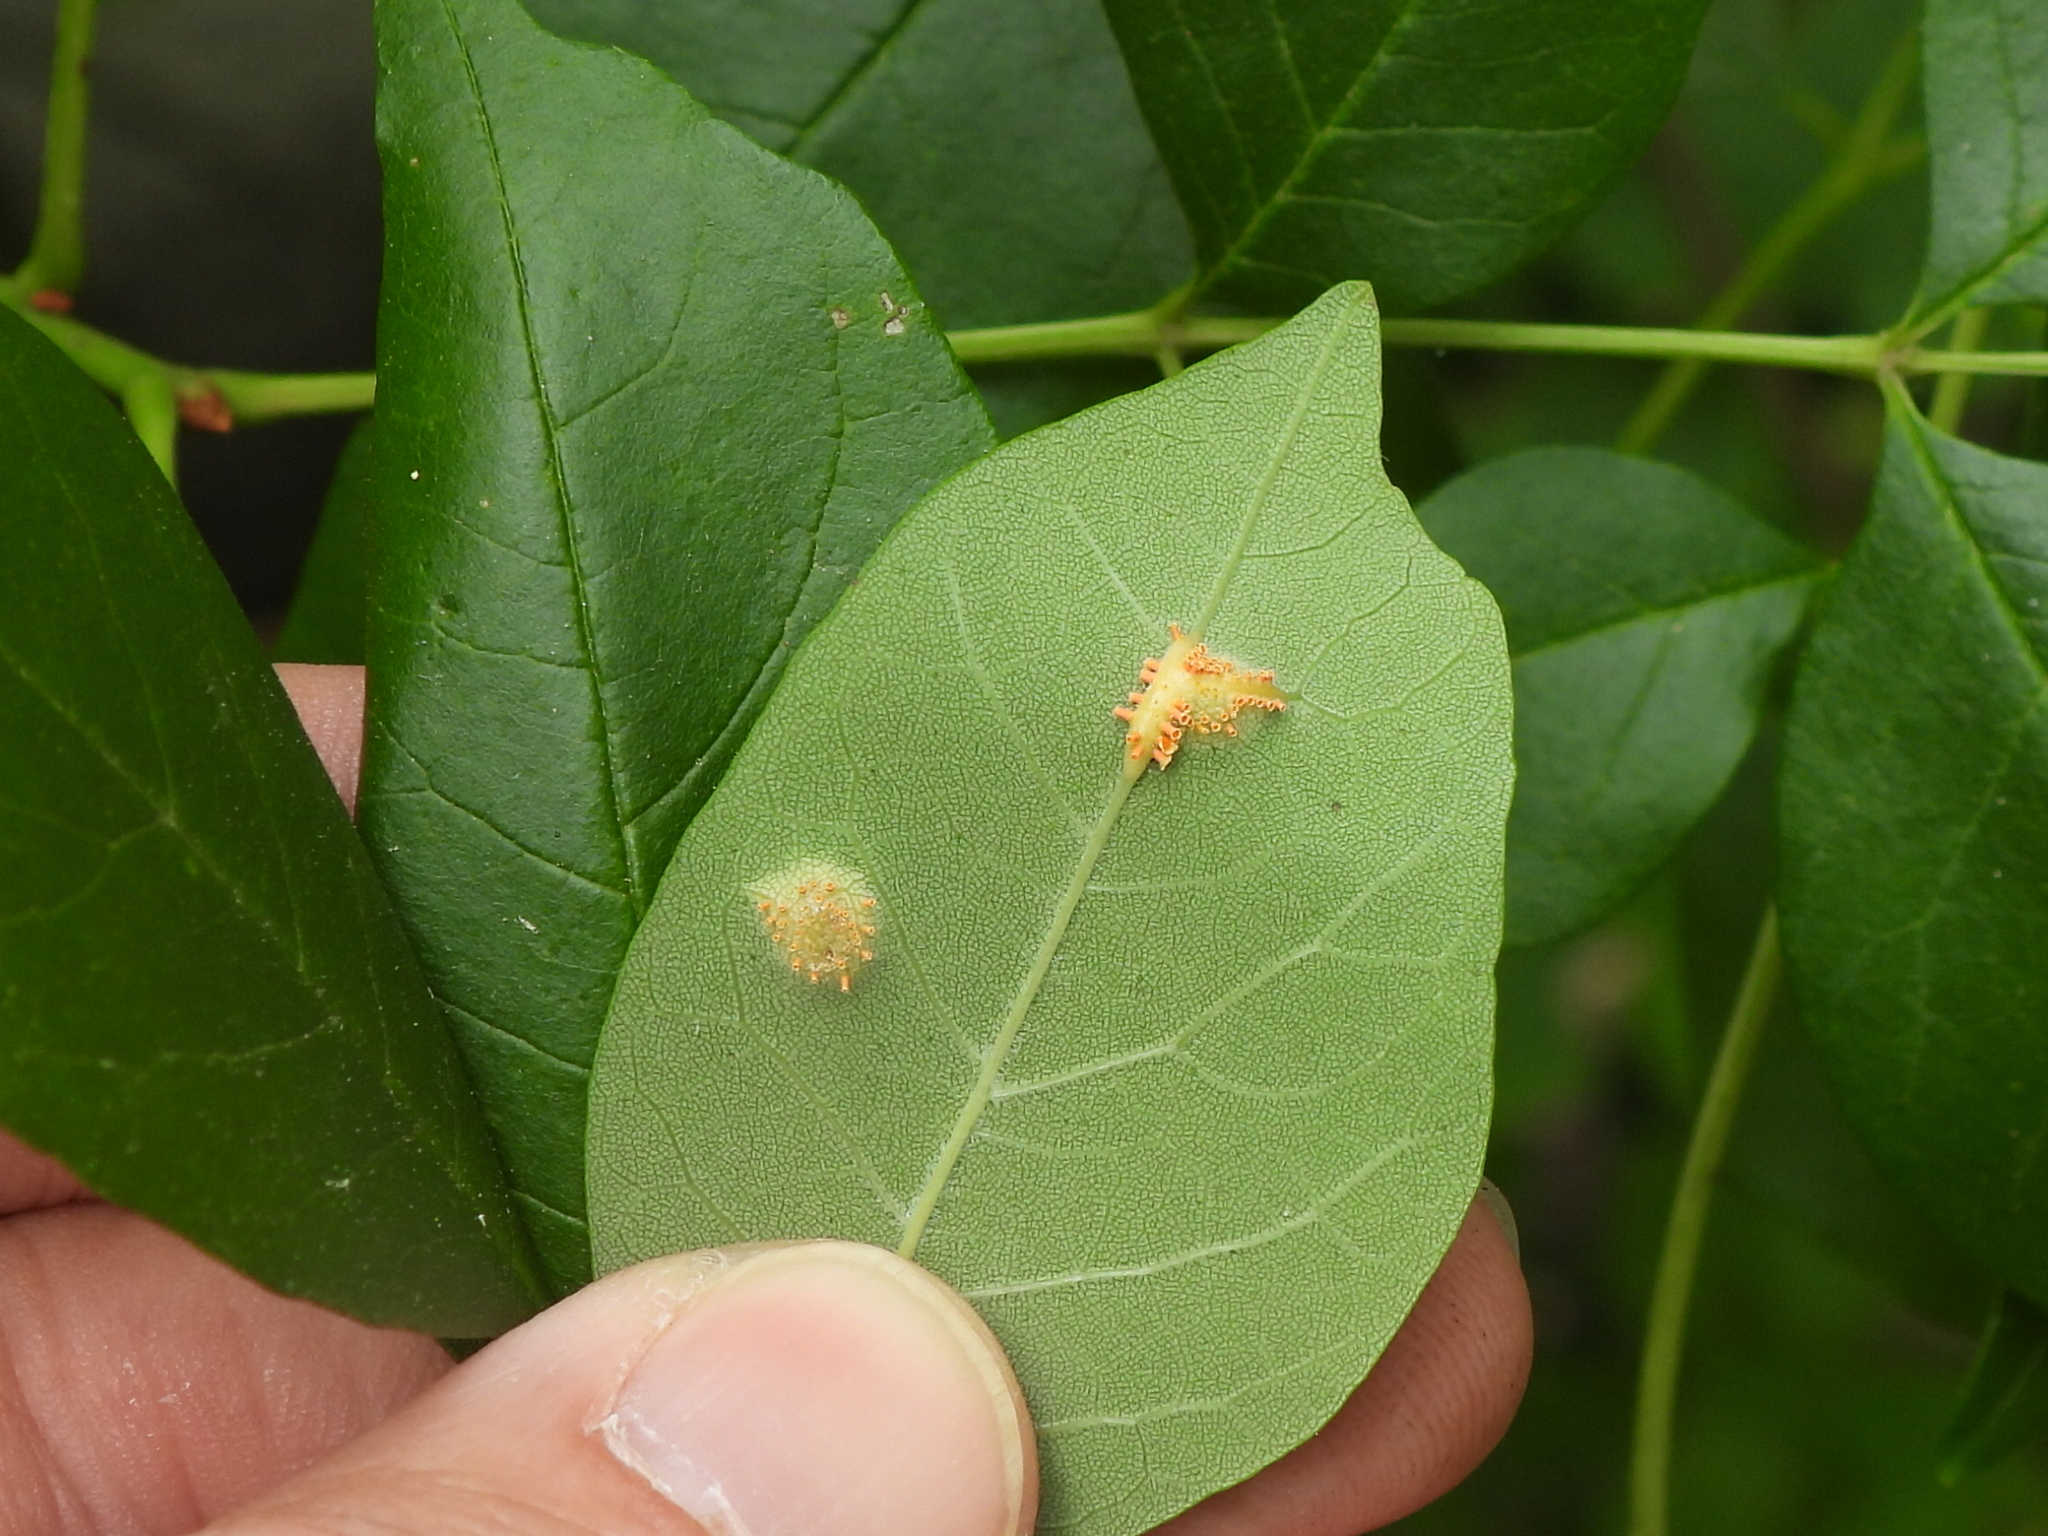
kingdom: Fungi
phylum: Basidiomycota
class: Pucciniomycetes
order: Pucciniales
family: Pucciniaceae
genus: Puccinia
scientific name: Puccinia sparganioidis
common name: Ash rust
